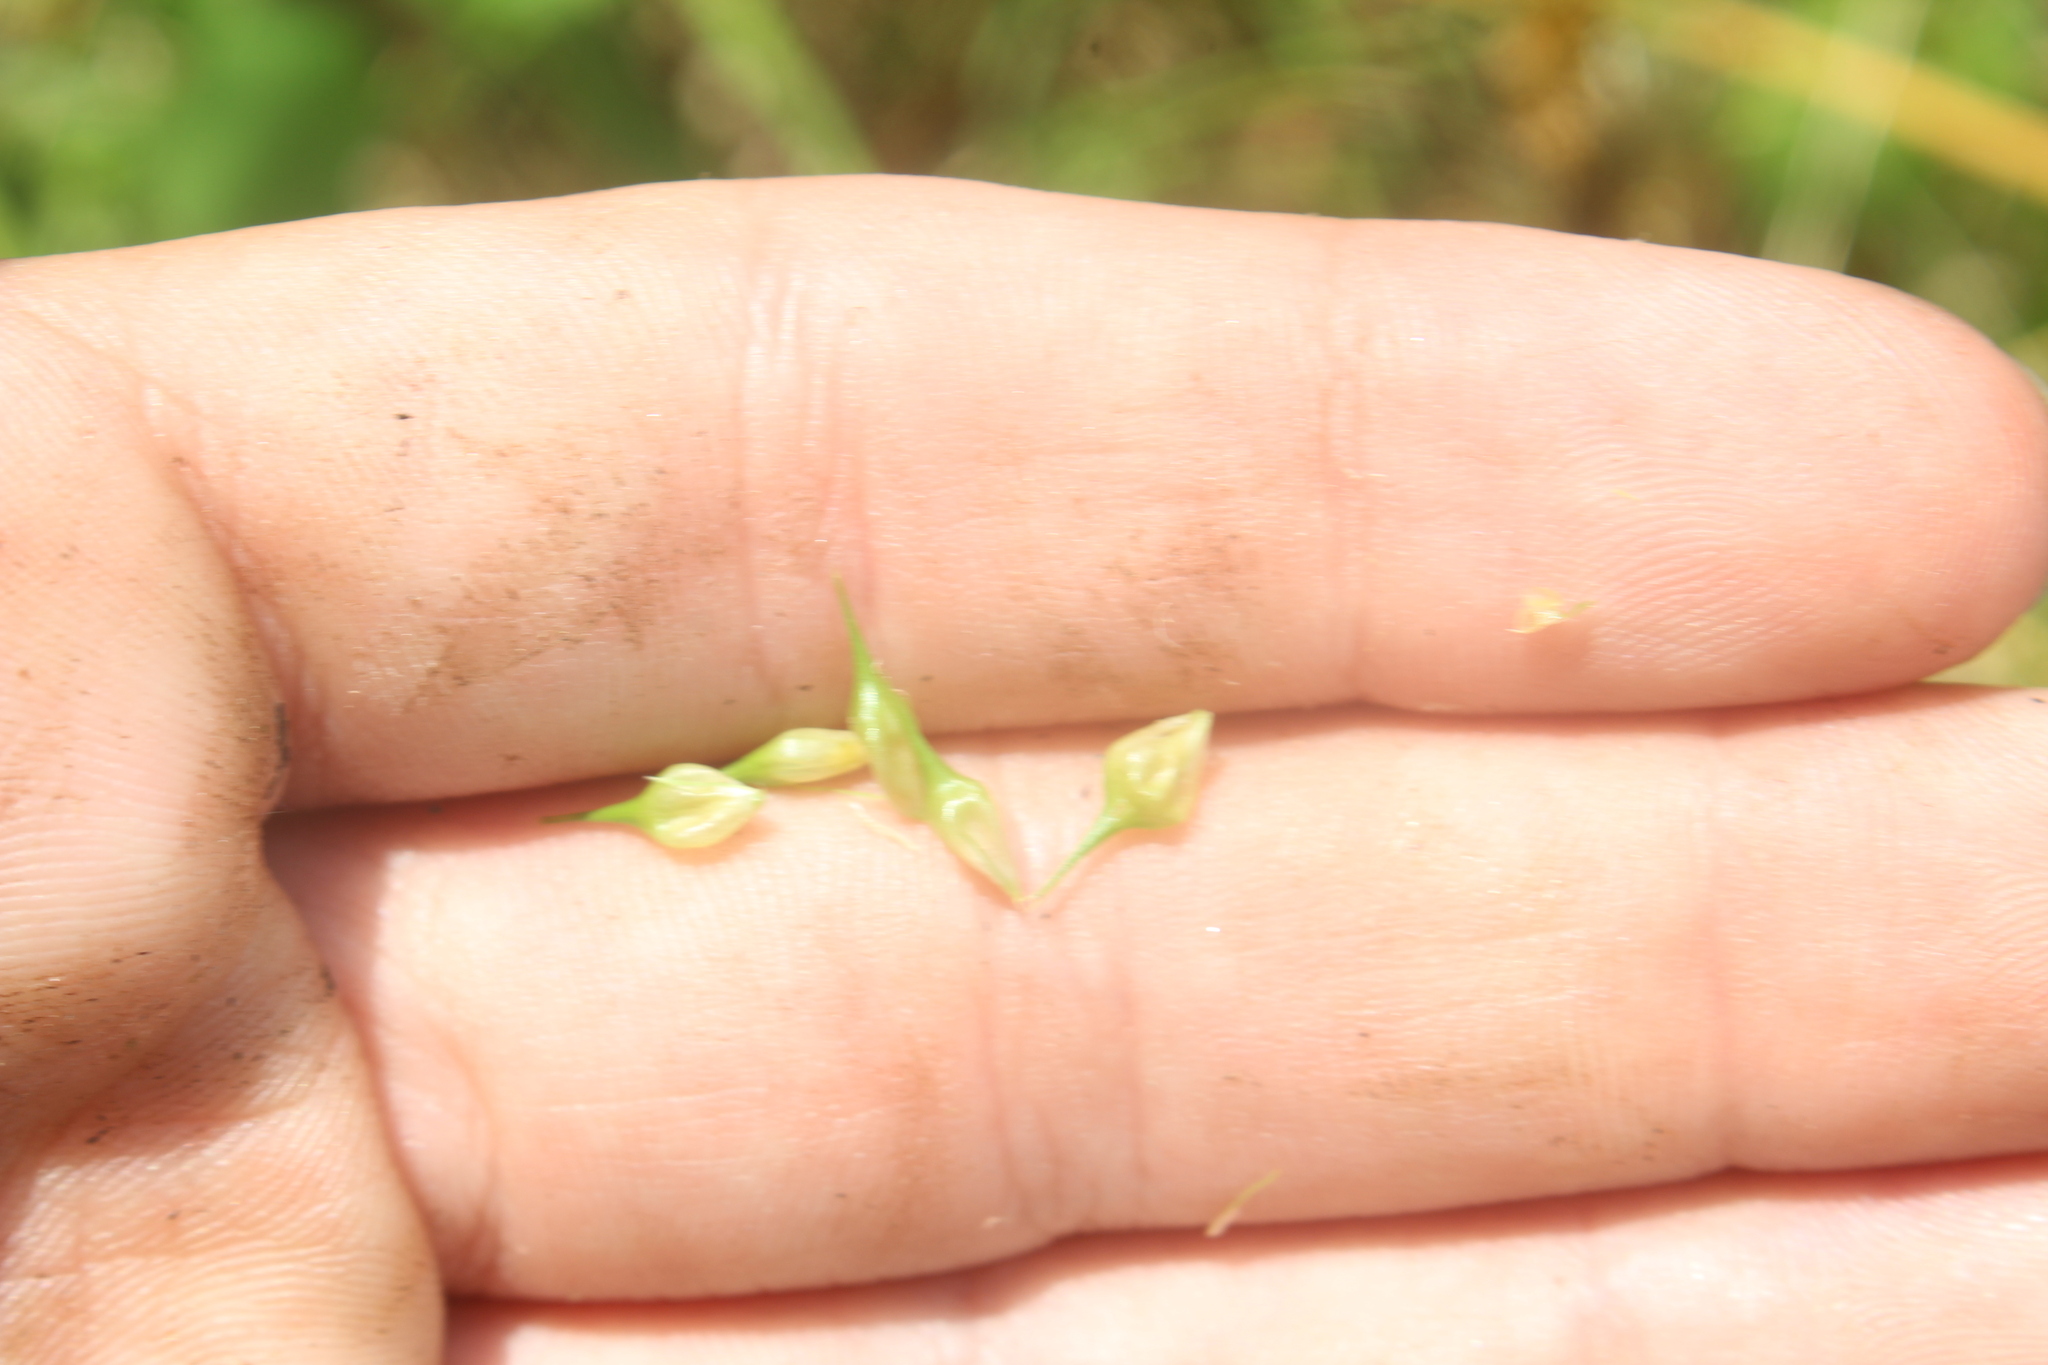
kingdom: Plantae
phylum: Tracheophyta
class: Liliopsida
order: Poales
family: Cyperaceae
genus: Carex
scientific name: Carex lurida
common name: Sallow sedge
